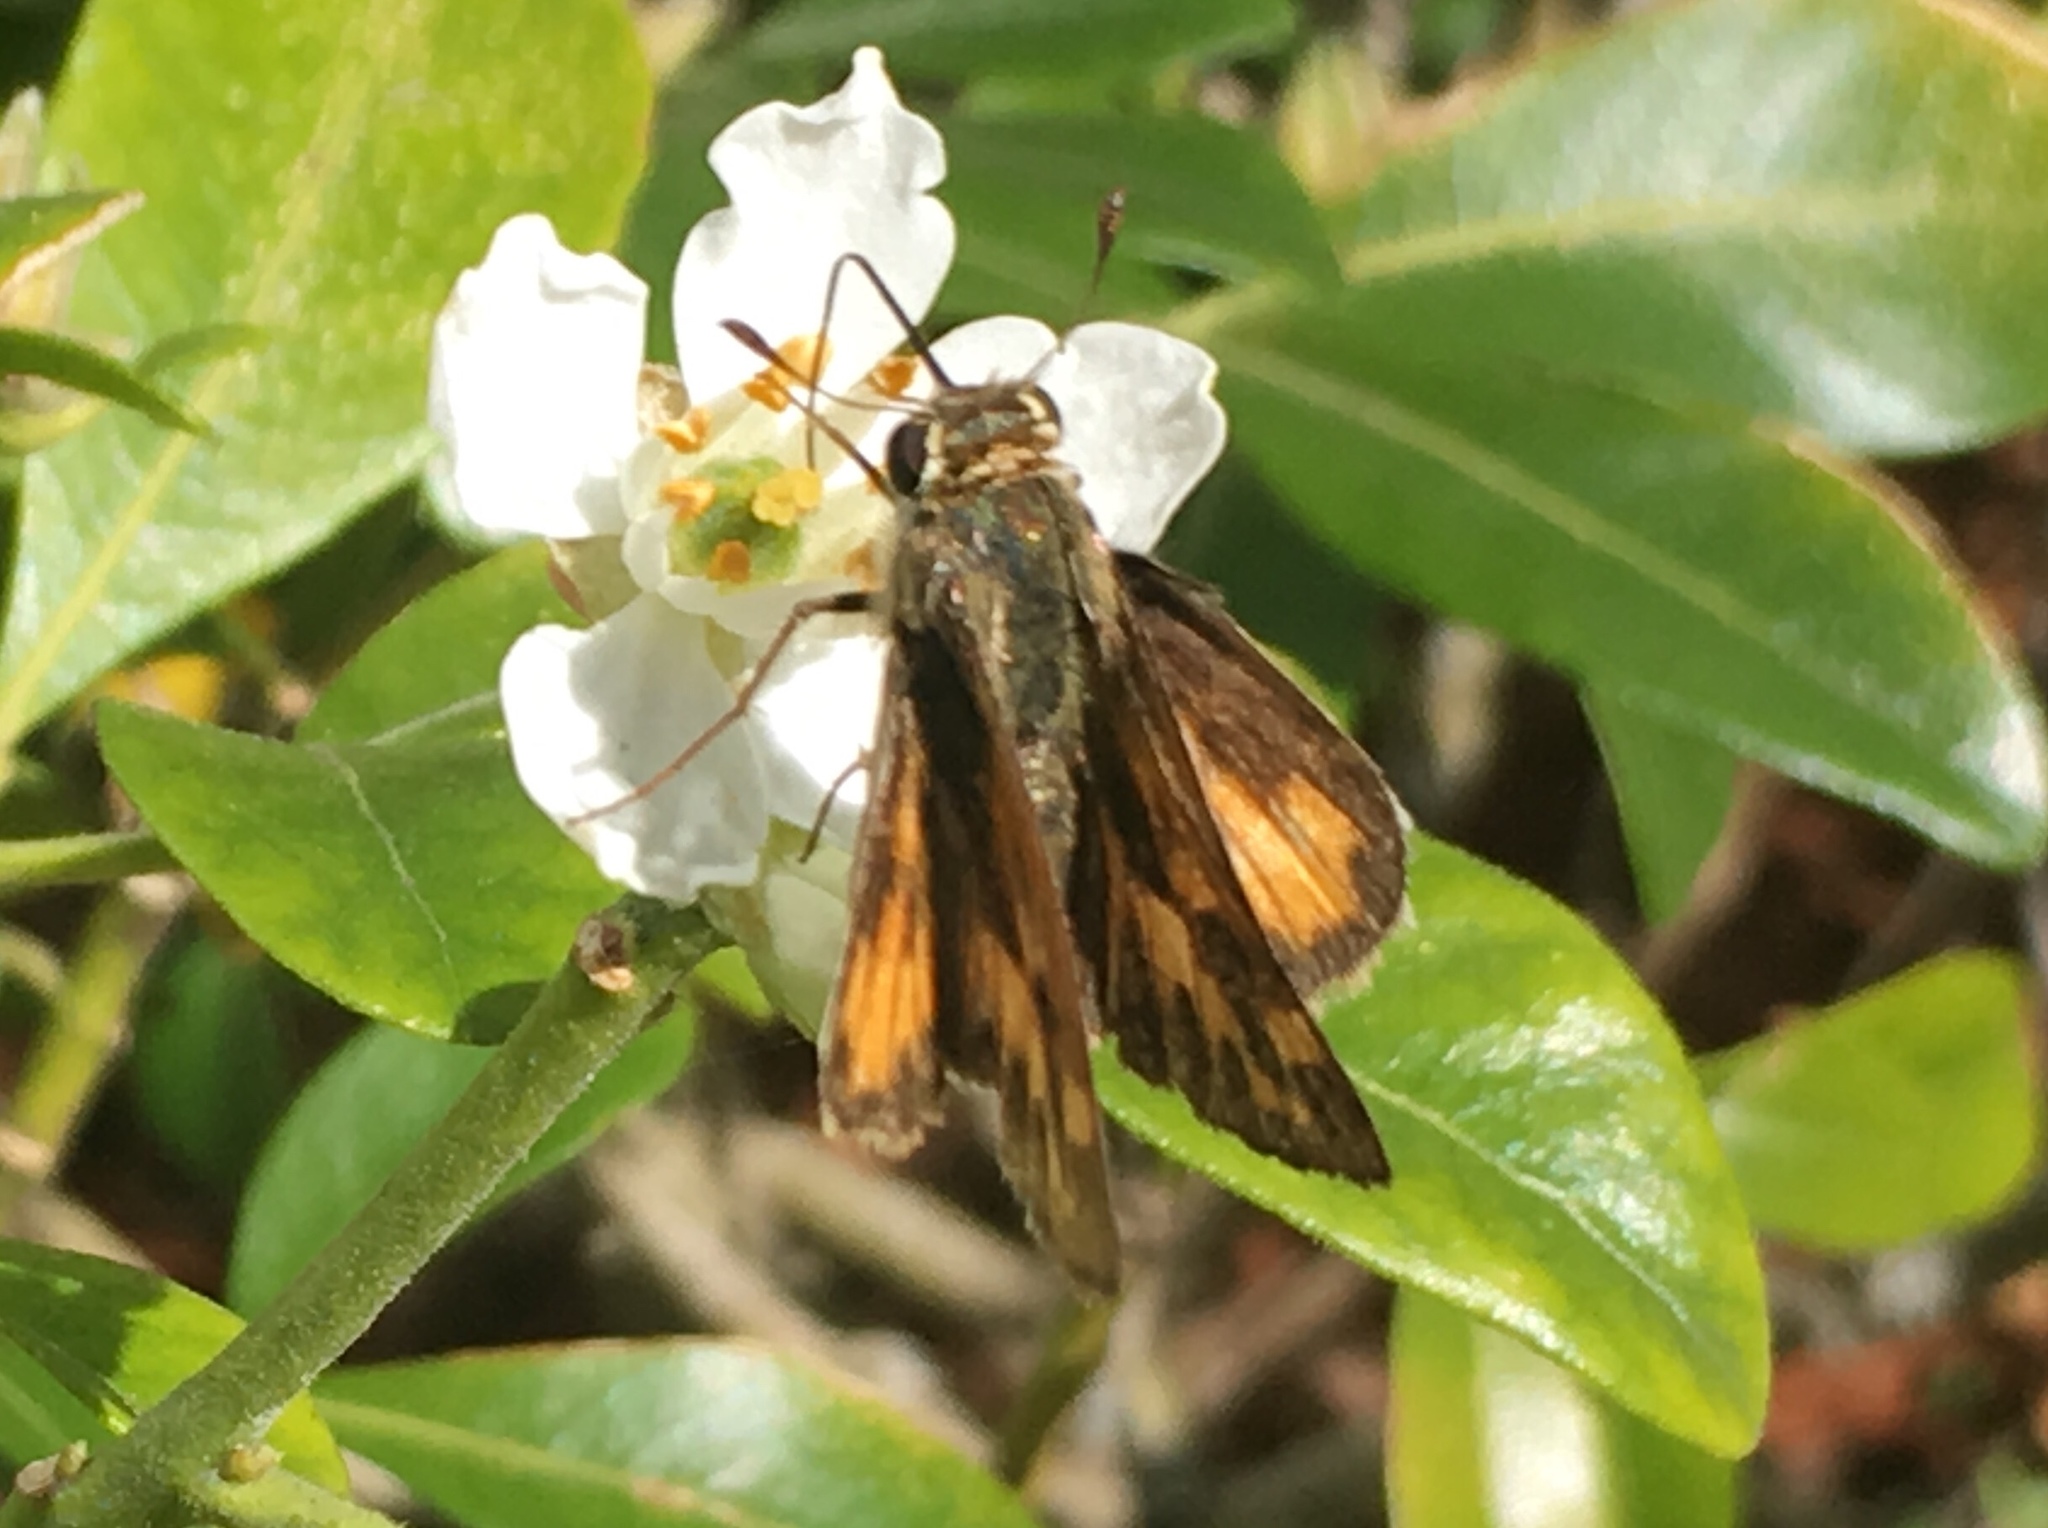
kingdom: Animalia
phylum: Arthropoda
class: Insecta
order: Lepidoptera
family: Hesperiidae
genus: Hylephila
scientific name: Hylephila phyleus
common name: Fiery skipper
